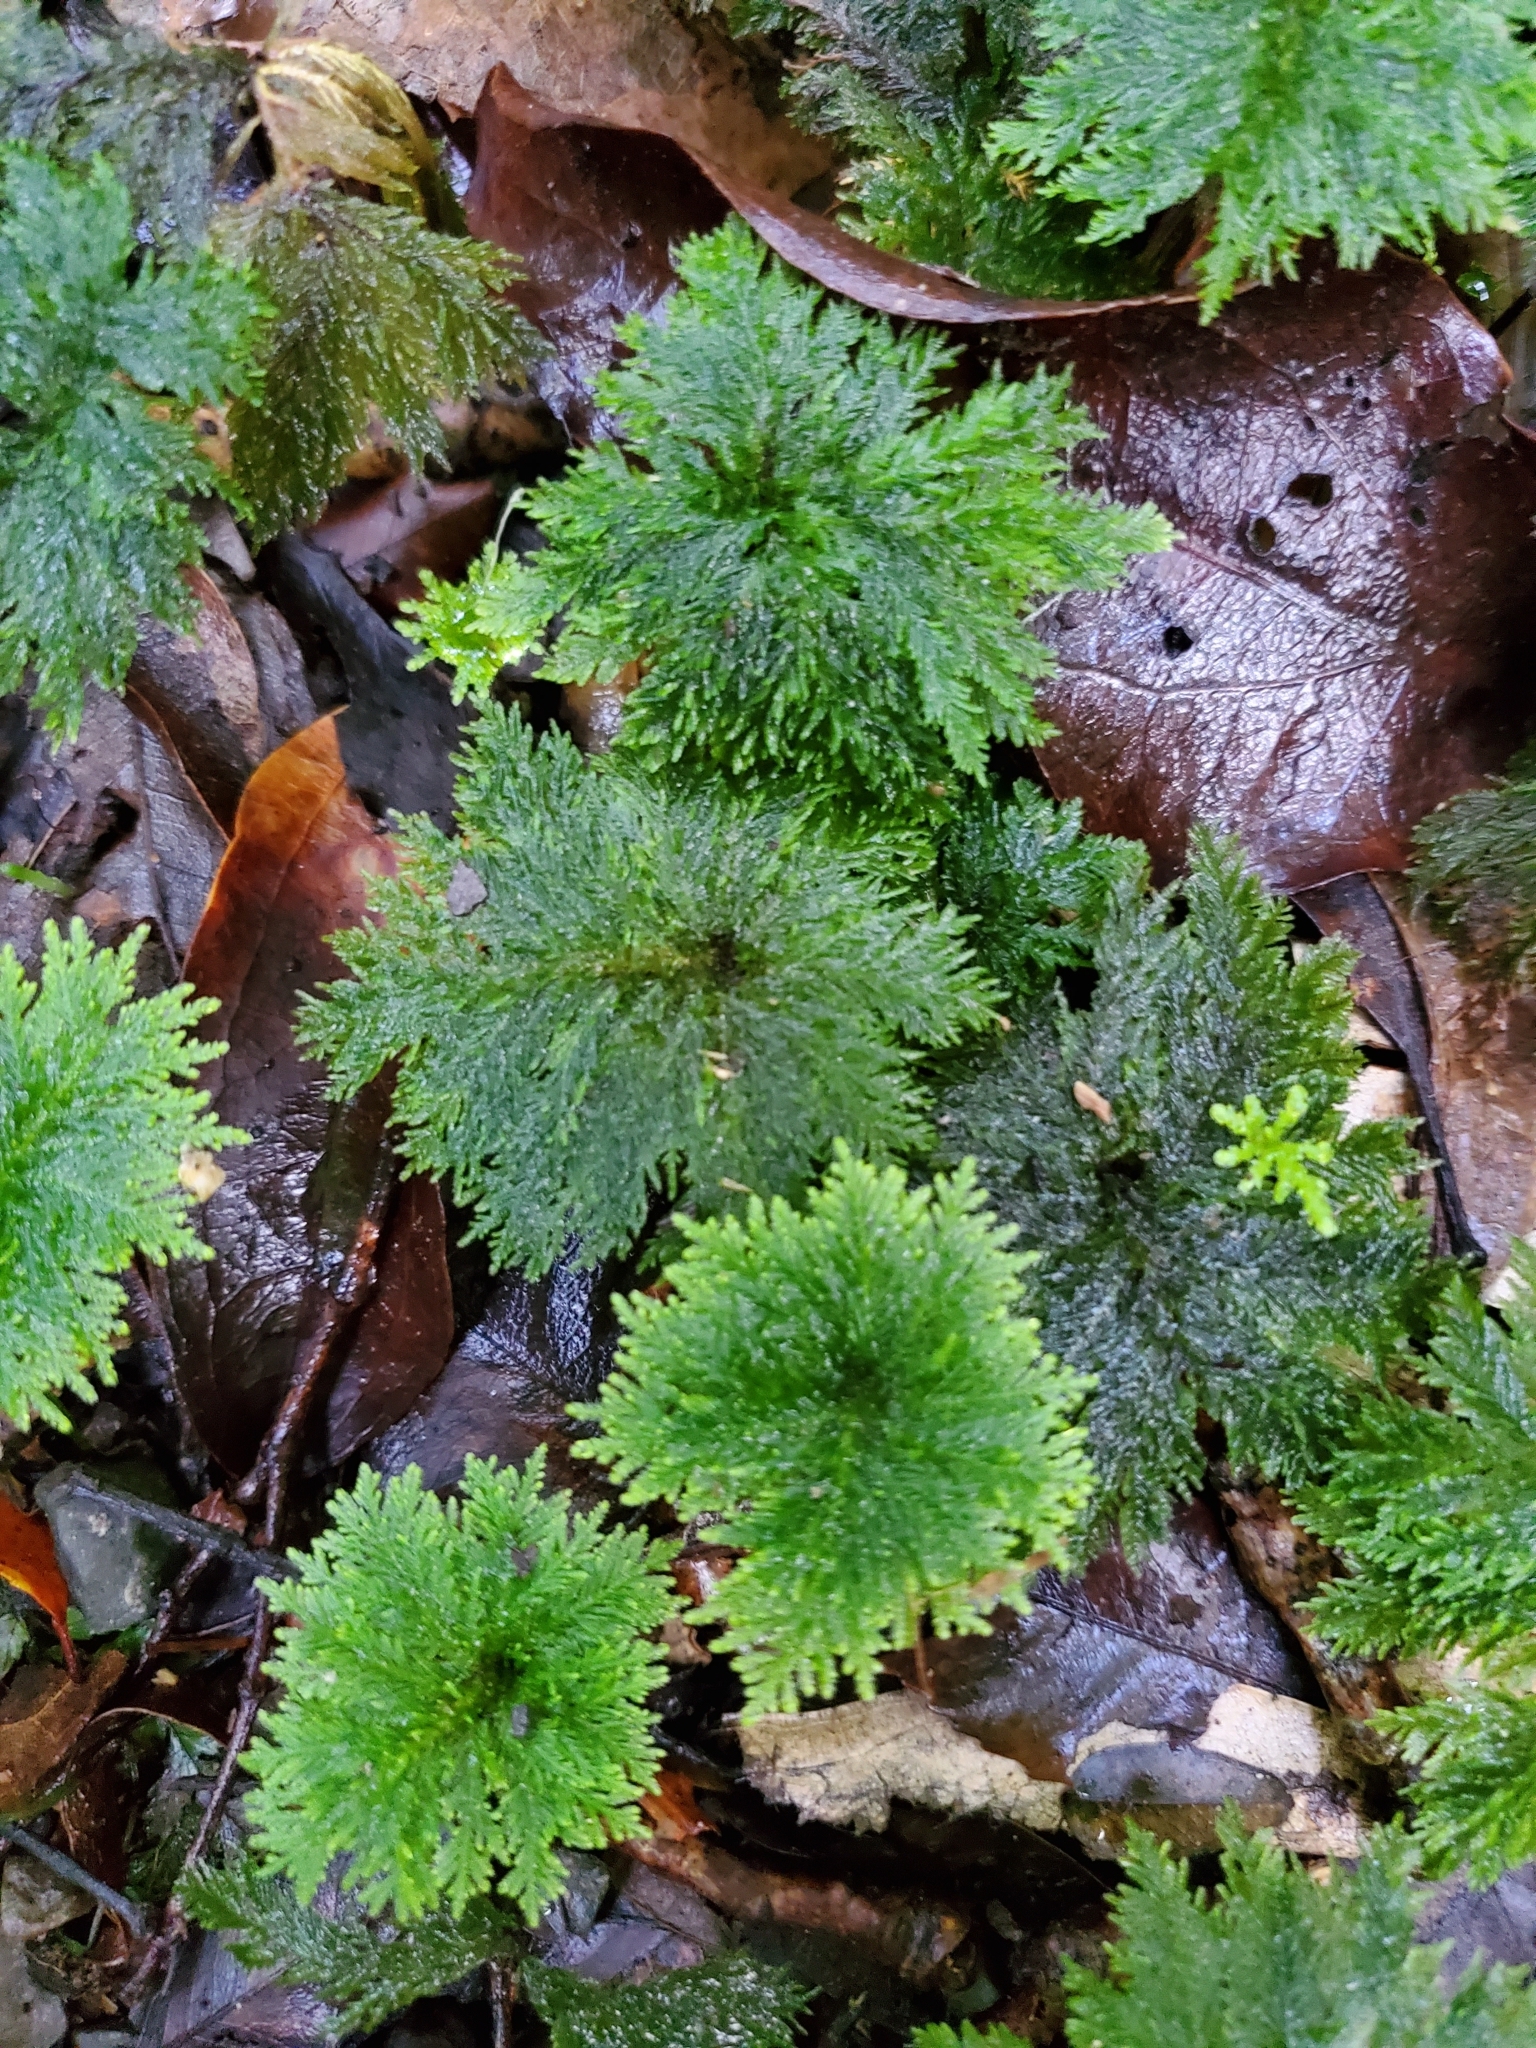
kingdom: Plantae
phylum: Bryophyta
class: Bryopsida
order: Hypopterygiales
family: Hypopterygiaceae
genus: Dendrohypopterygium
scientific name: Dendrohypopterygium filiculiforme
